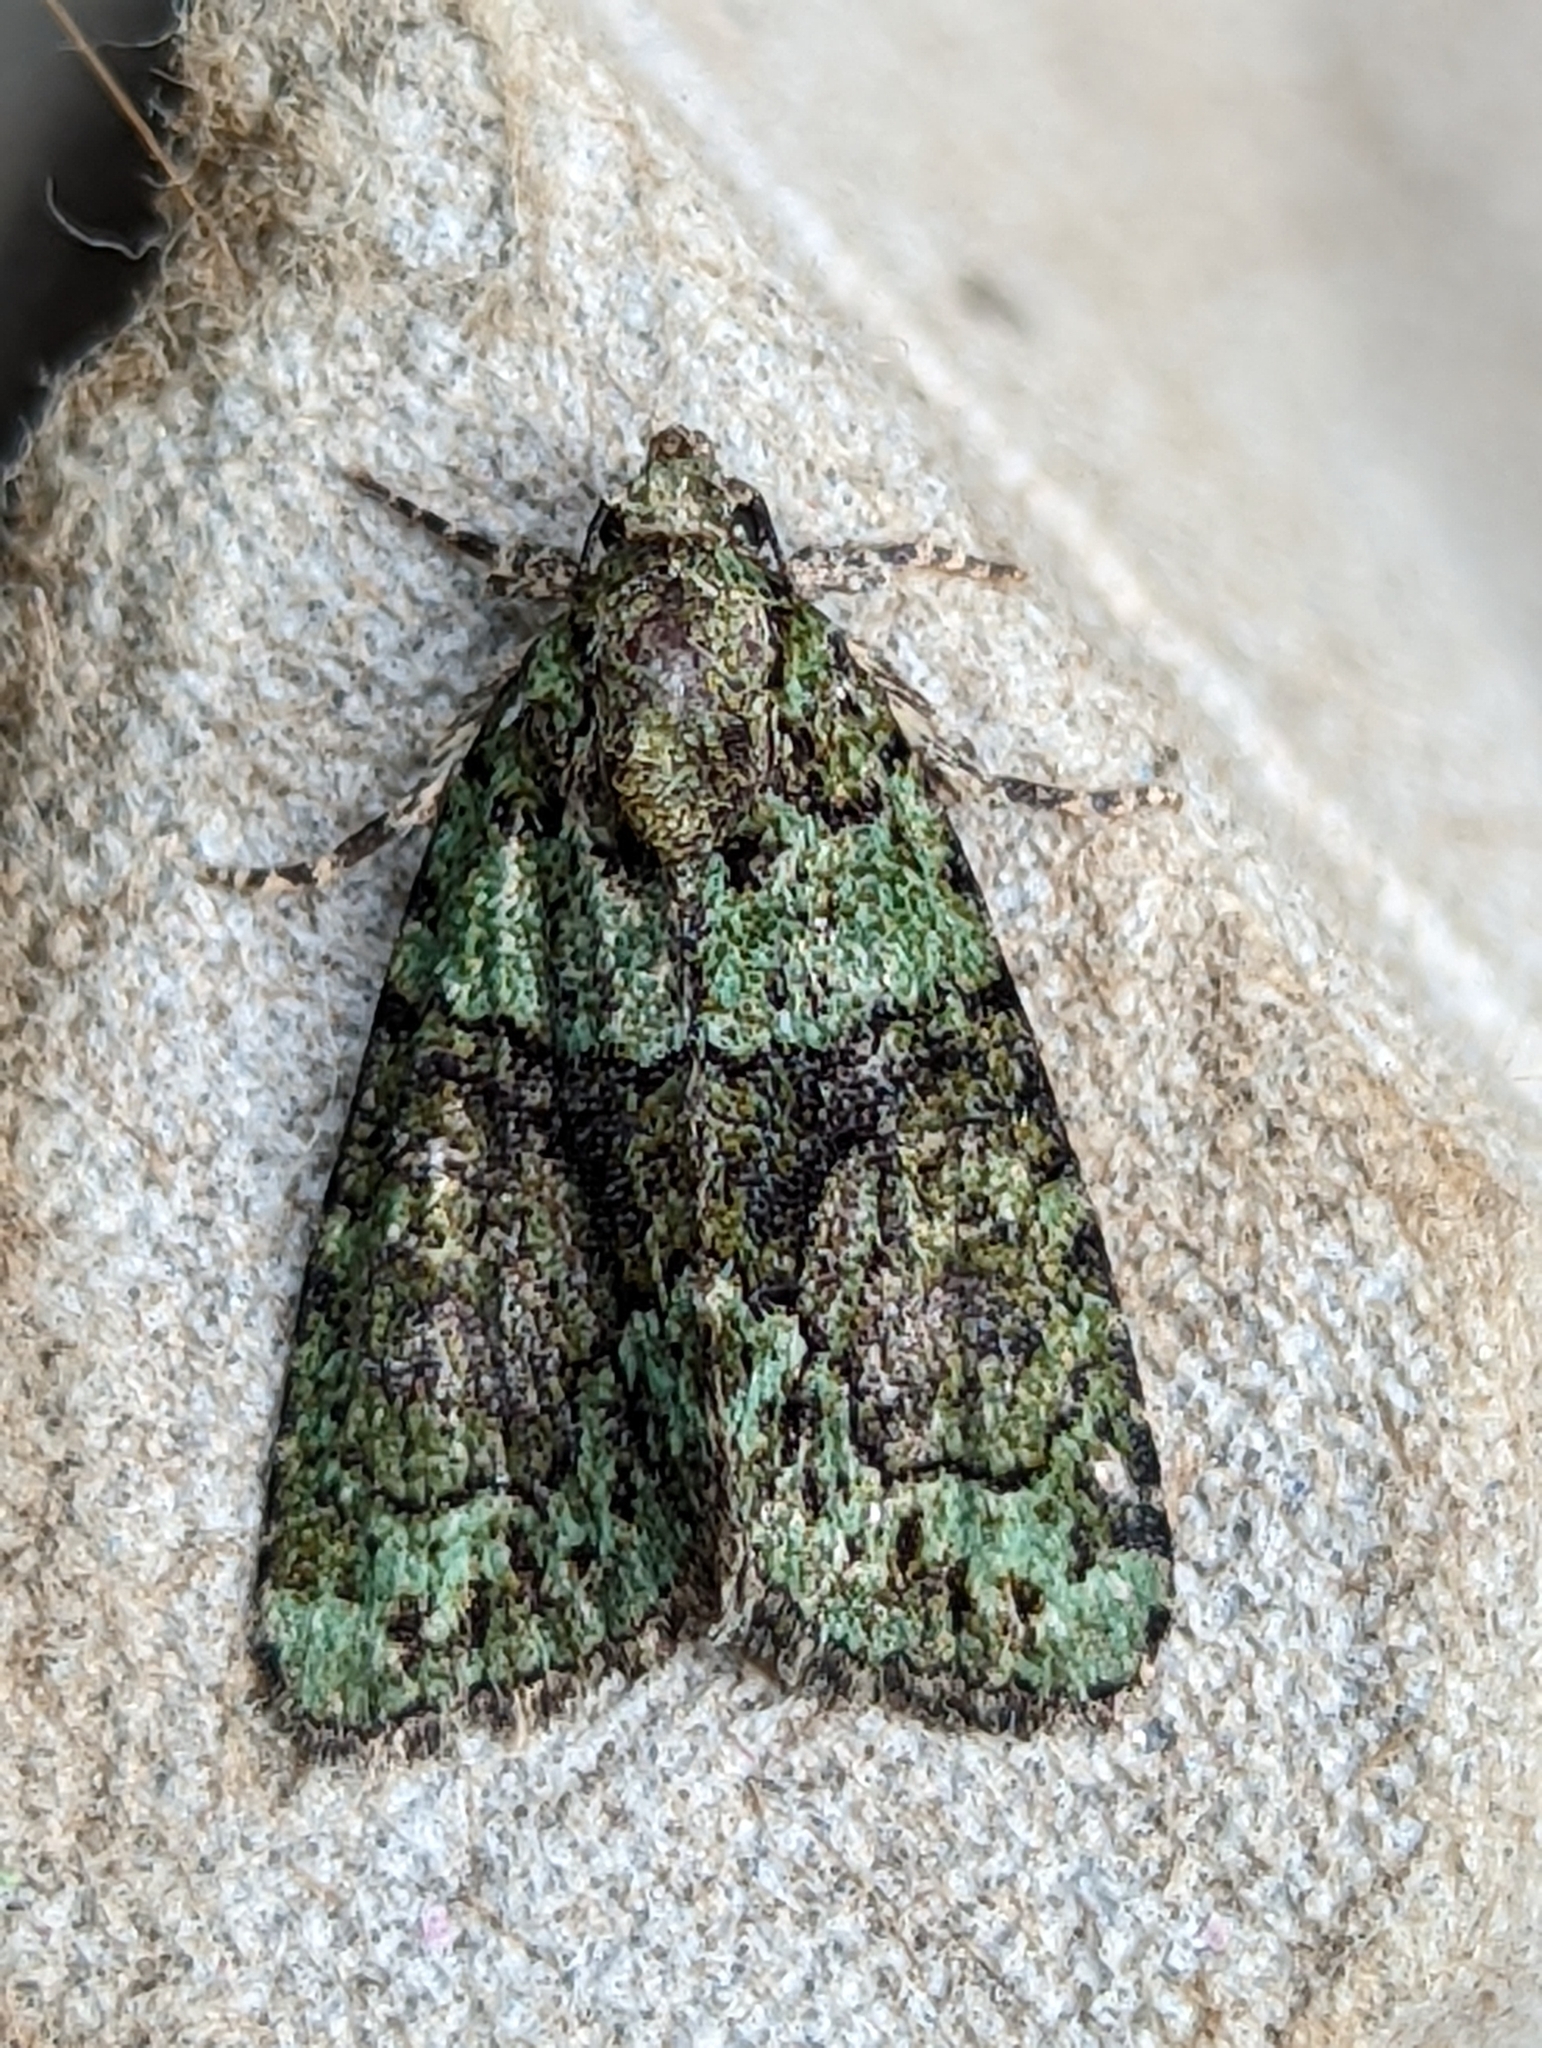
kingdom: Animalia
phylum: Arthropoda
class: Insecta
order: Lepidoptera
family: Noctuidae
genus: Cryphia
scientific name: Cryphia algae
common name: Tree-lichen beauty
